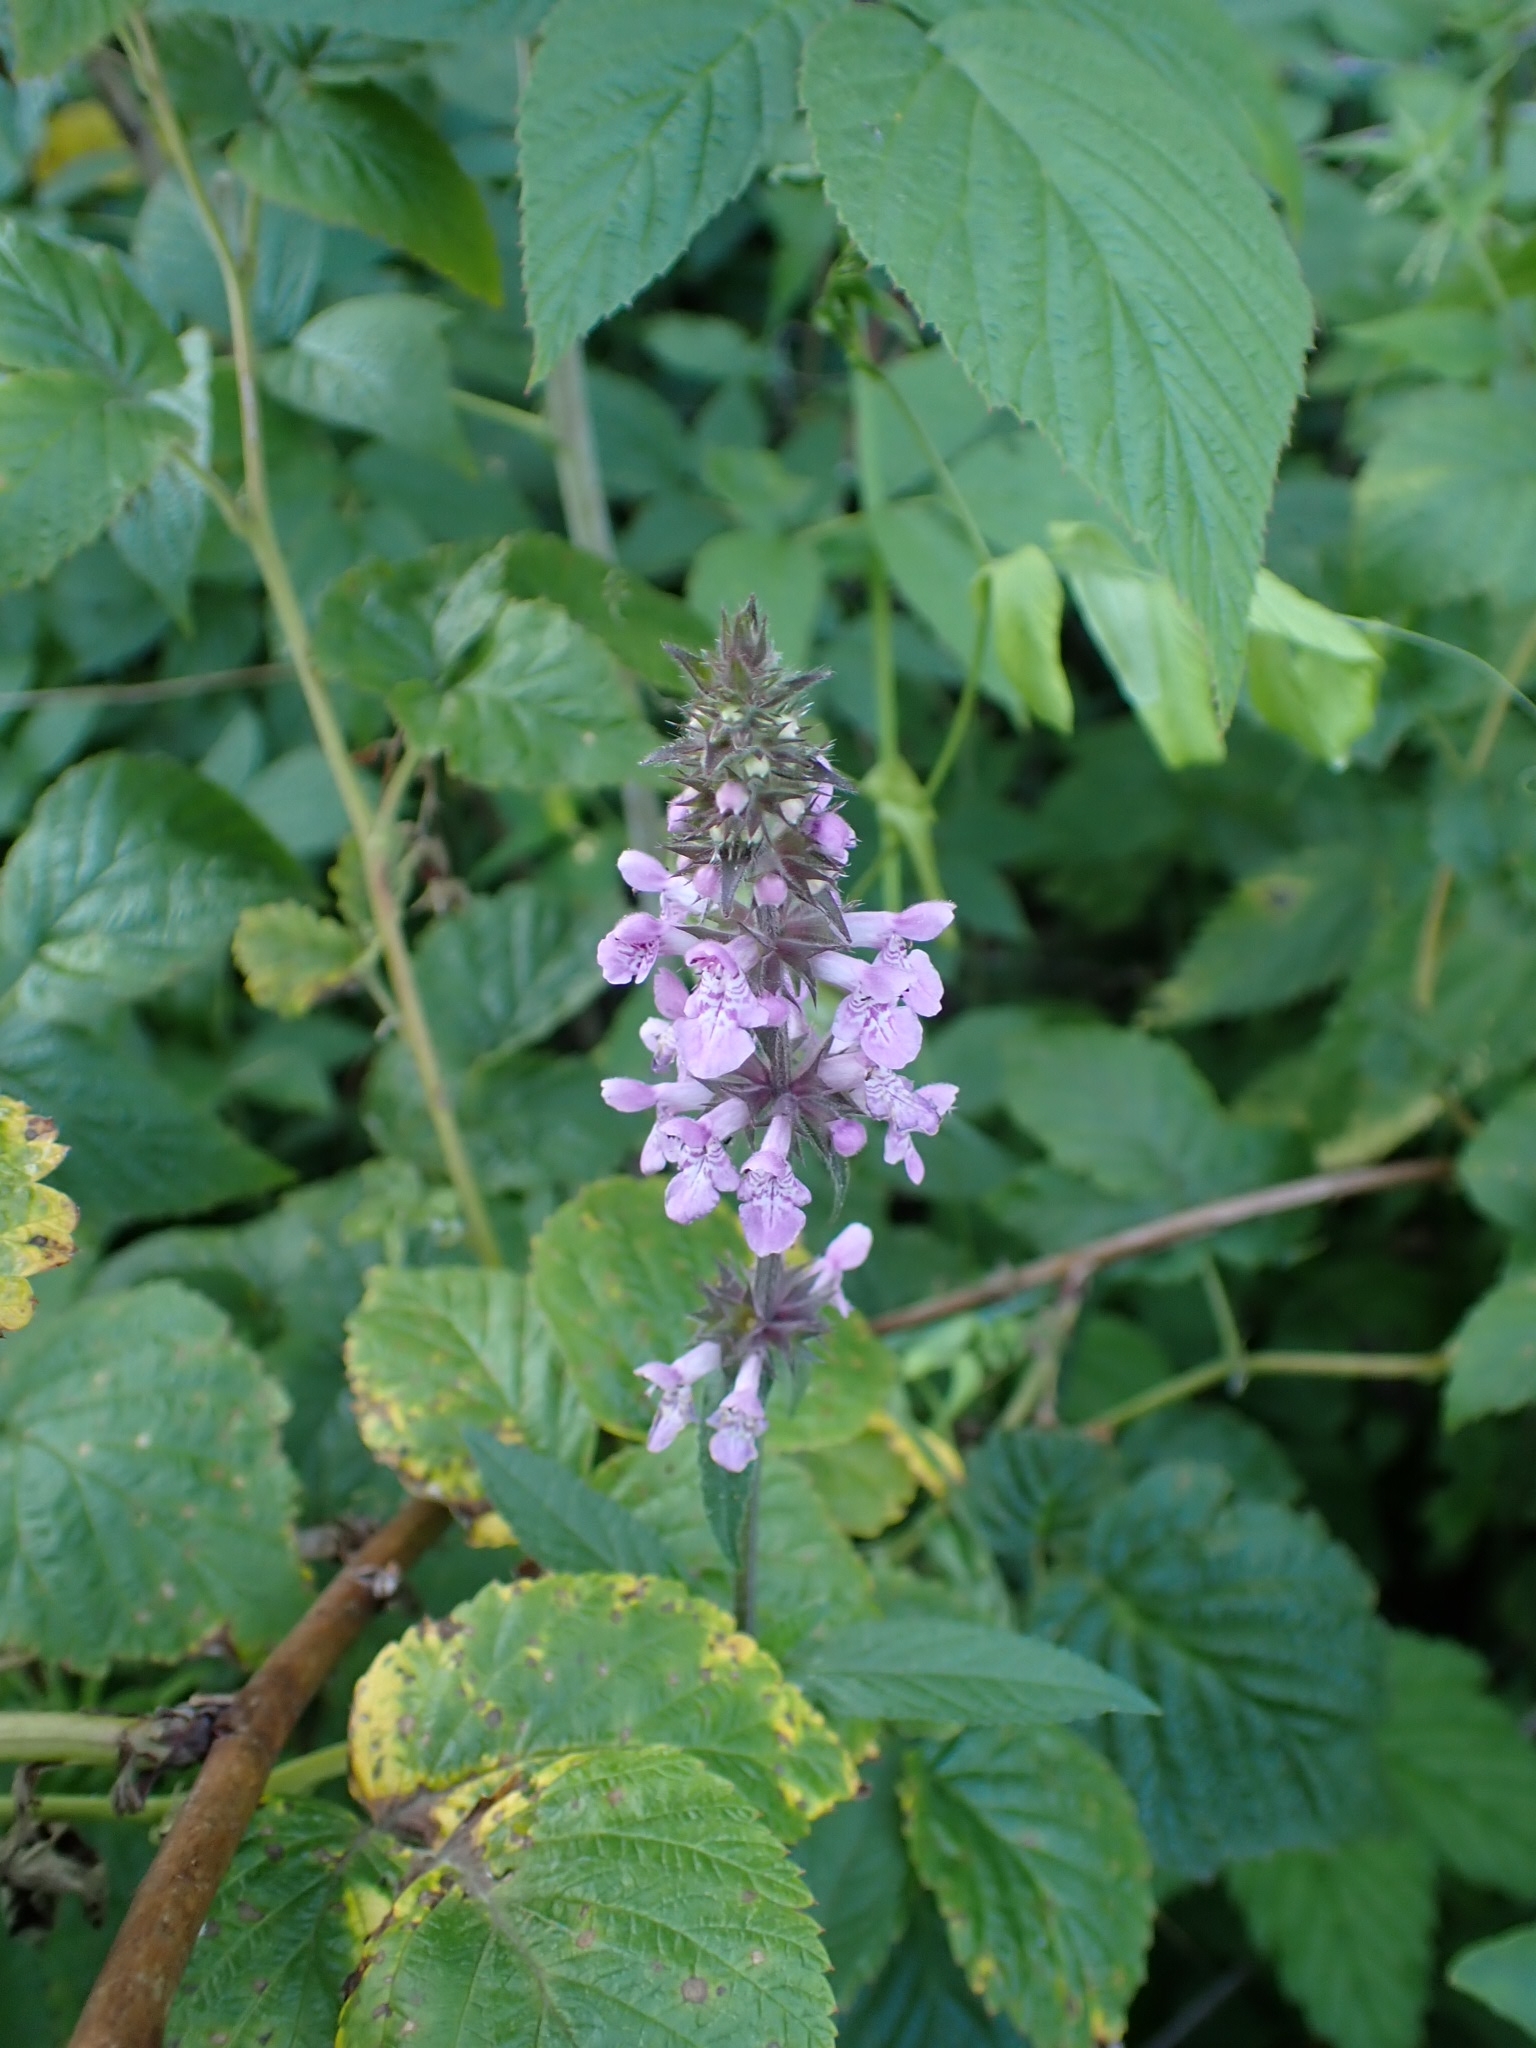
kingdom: Plantae
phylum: Tracheophyta
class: Magnoliopsida
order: Lamiales
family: Lamiaceae
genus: Stachys
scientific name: Stachys palustris
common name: Marsh woundwort
